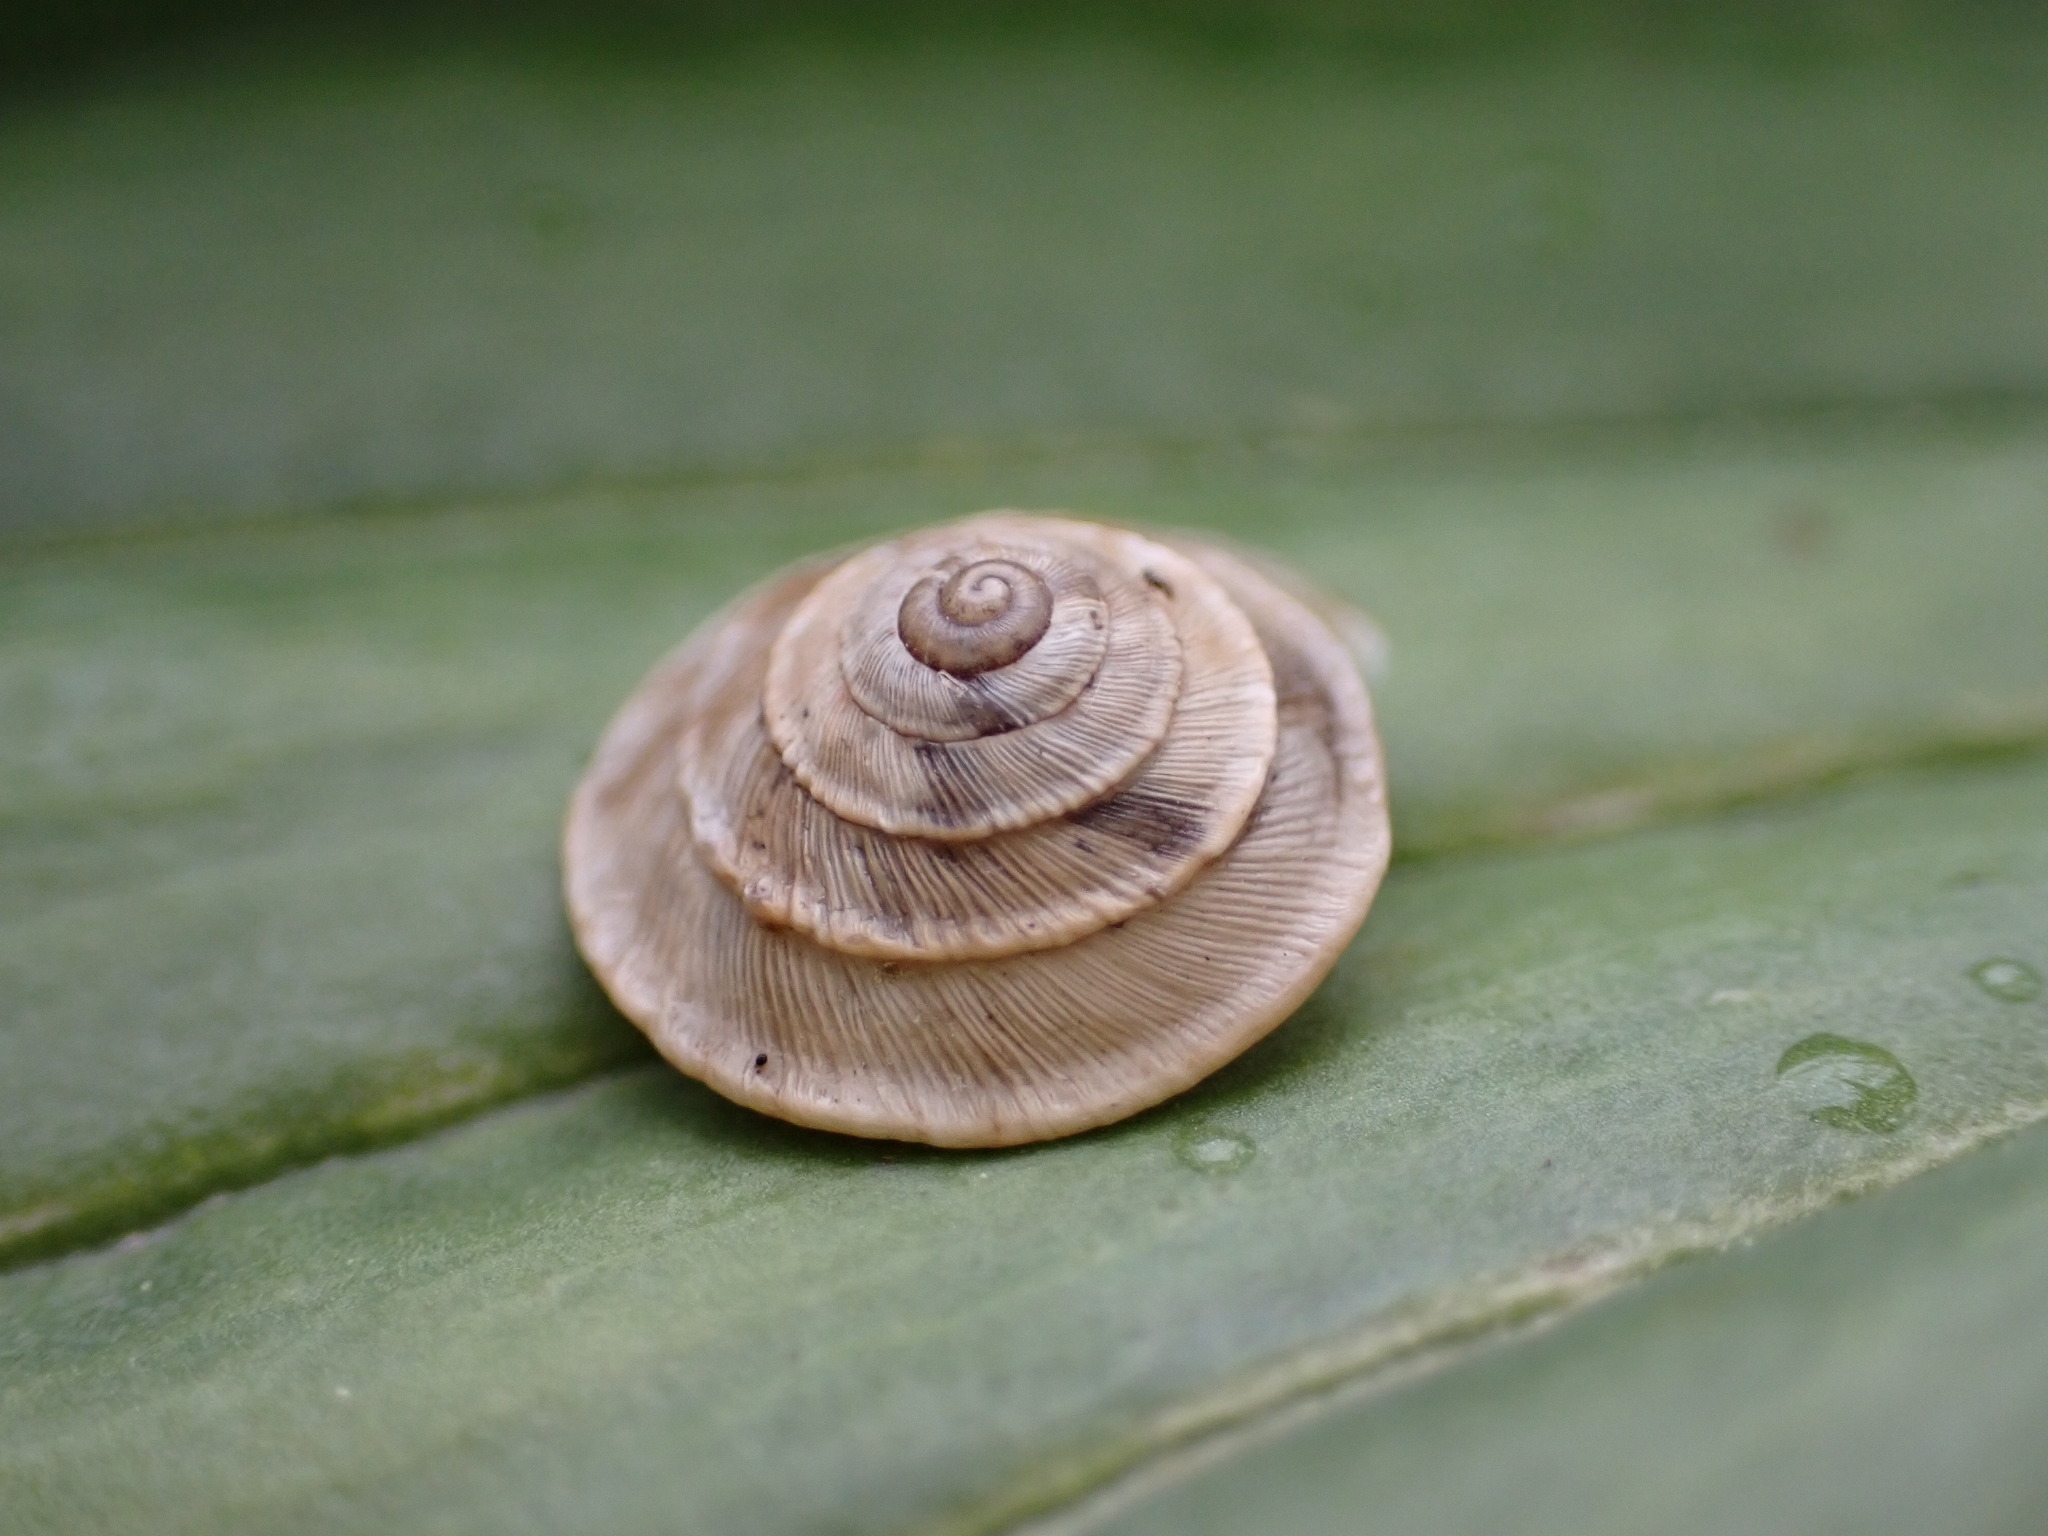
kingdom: Animalia
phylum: Mollusca
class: Gastropoda
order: Stylommatophora
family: Geomitridae
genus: Trochoidea
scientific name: Trochoidea elegans
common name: Elegant helicellid
